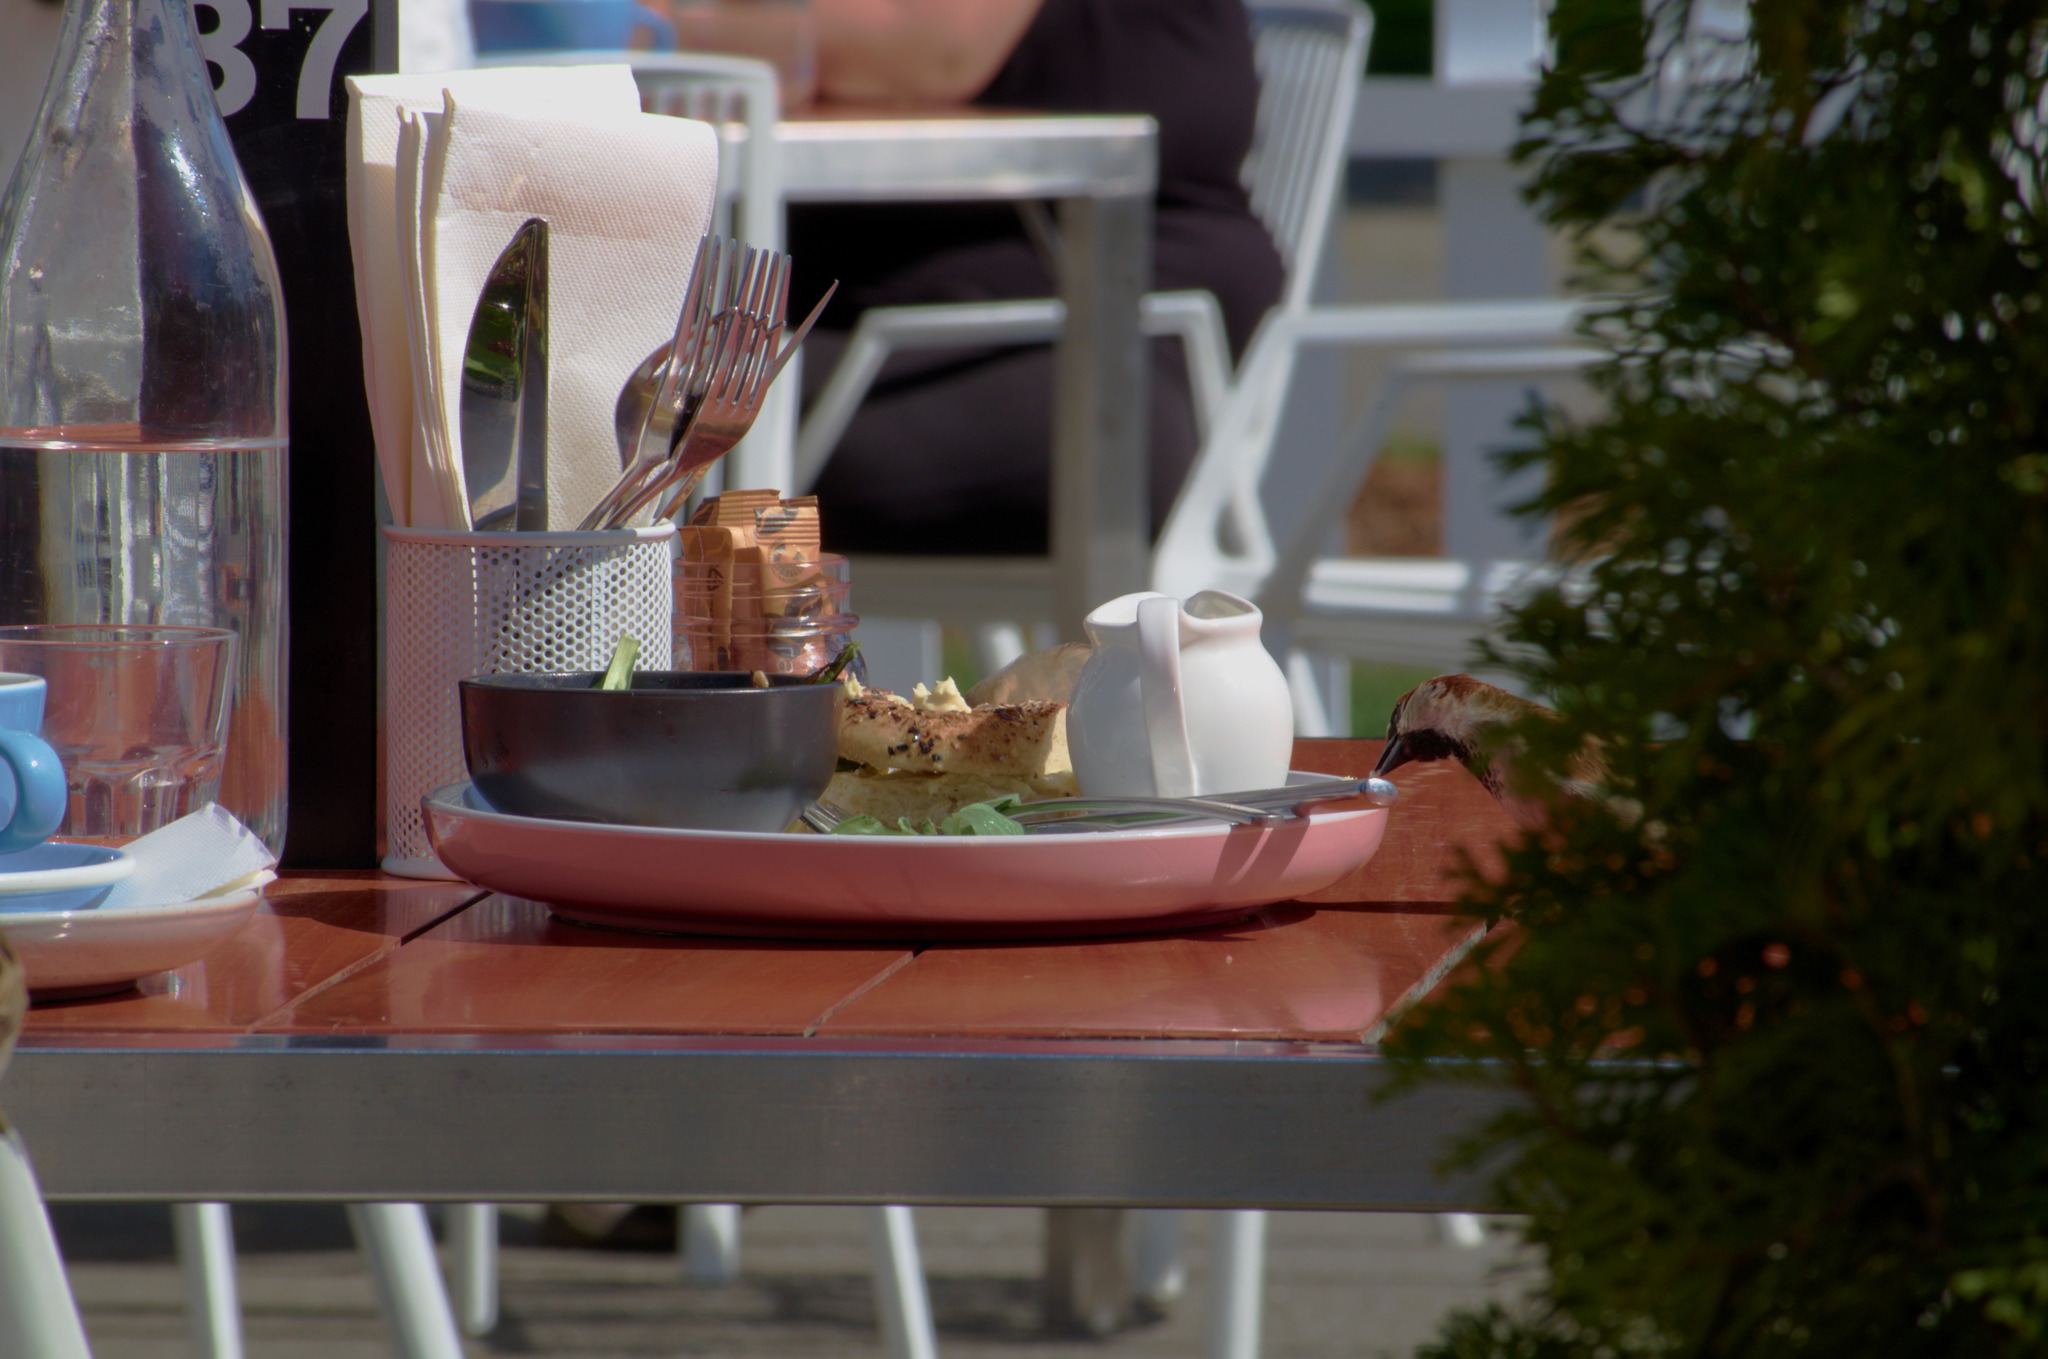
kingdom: Animalia
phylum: Chordata
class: Aves
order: Passeriformes
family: Passeridae
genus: Passer
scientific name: Passer domesticus
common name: House sparrow
